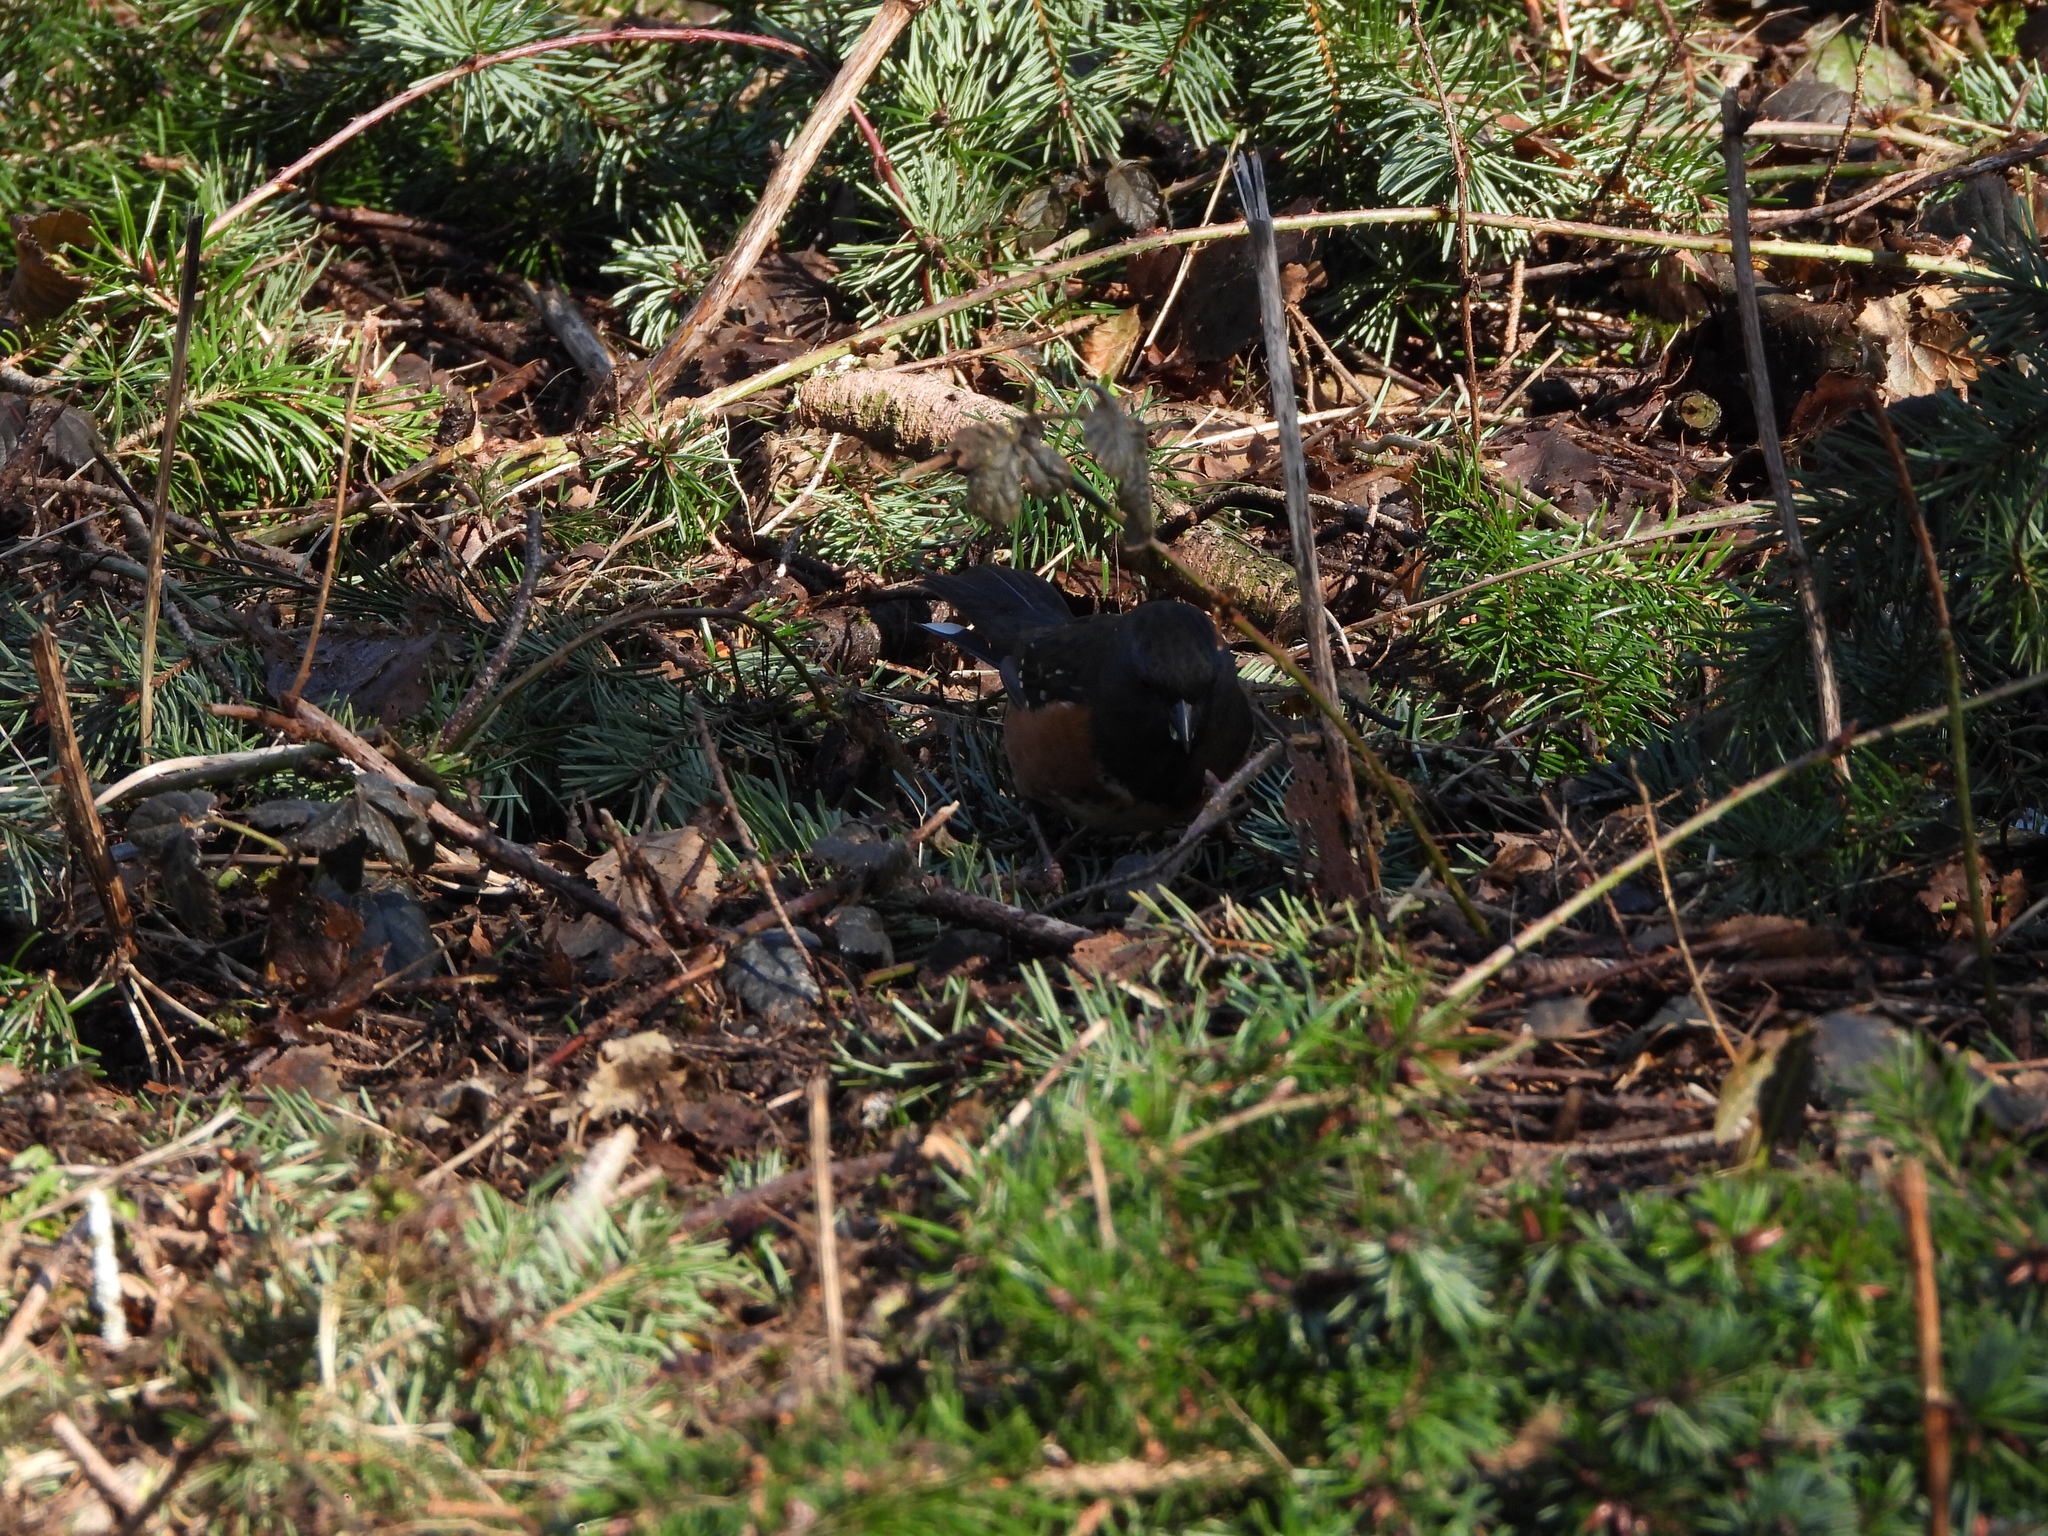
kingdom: Animalia
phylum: Chordata
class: Aves
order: Passeriformes
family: Passerellidae
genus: Pipilo
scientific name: Pipilo maculatus
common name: Spotted towhee
